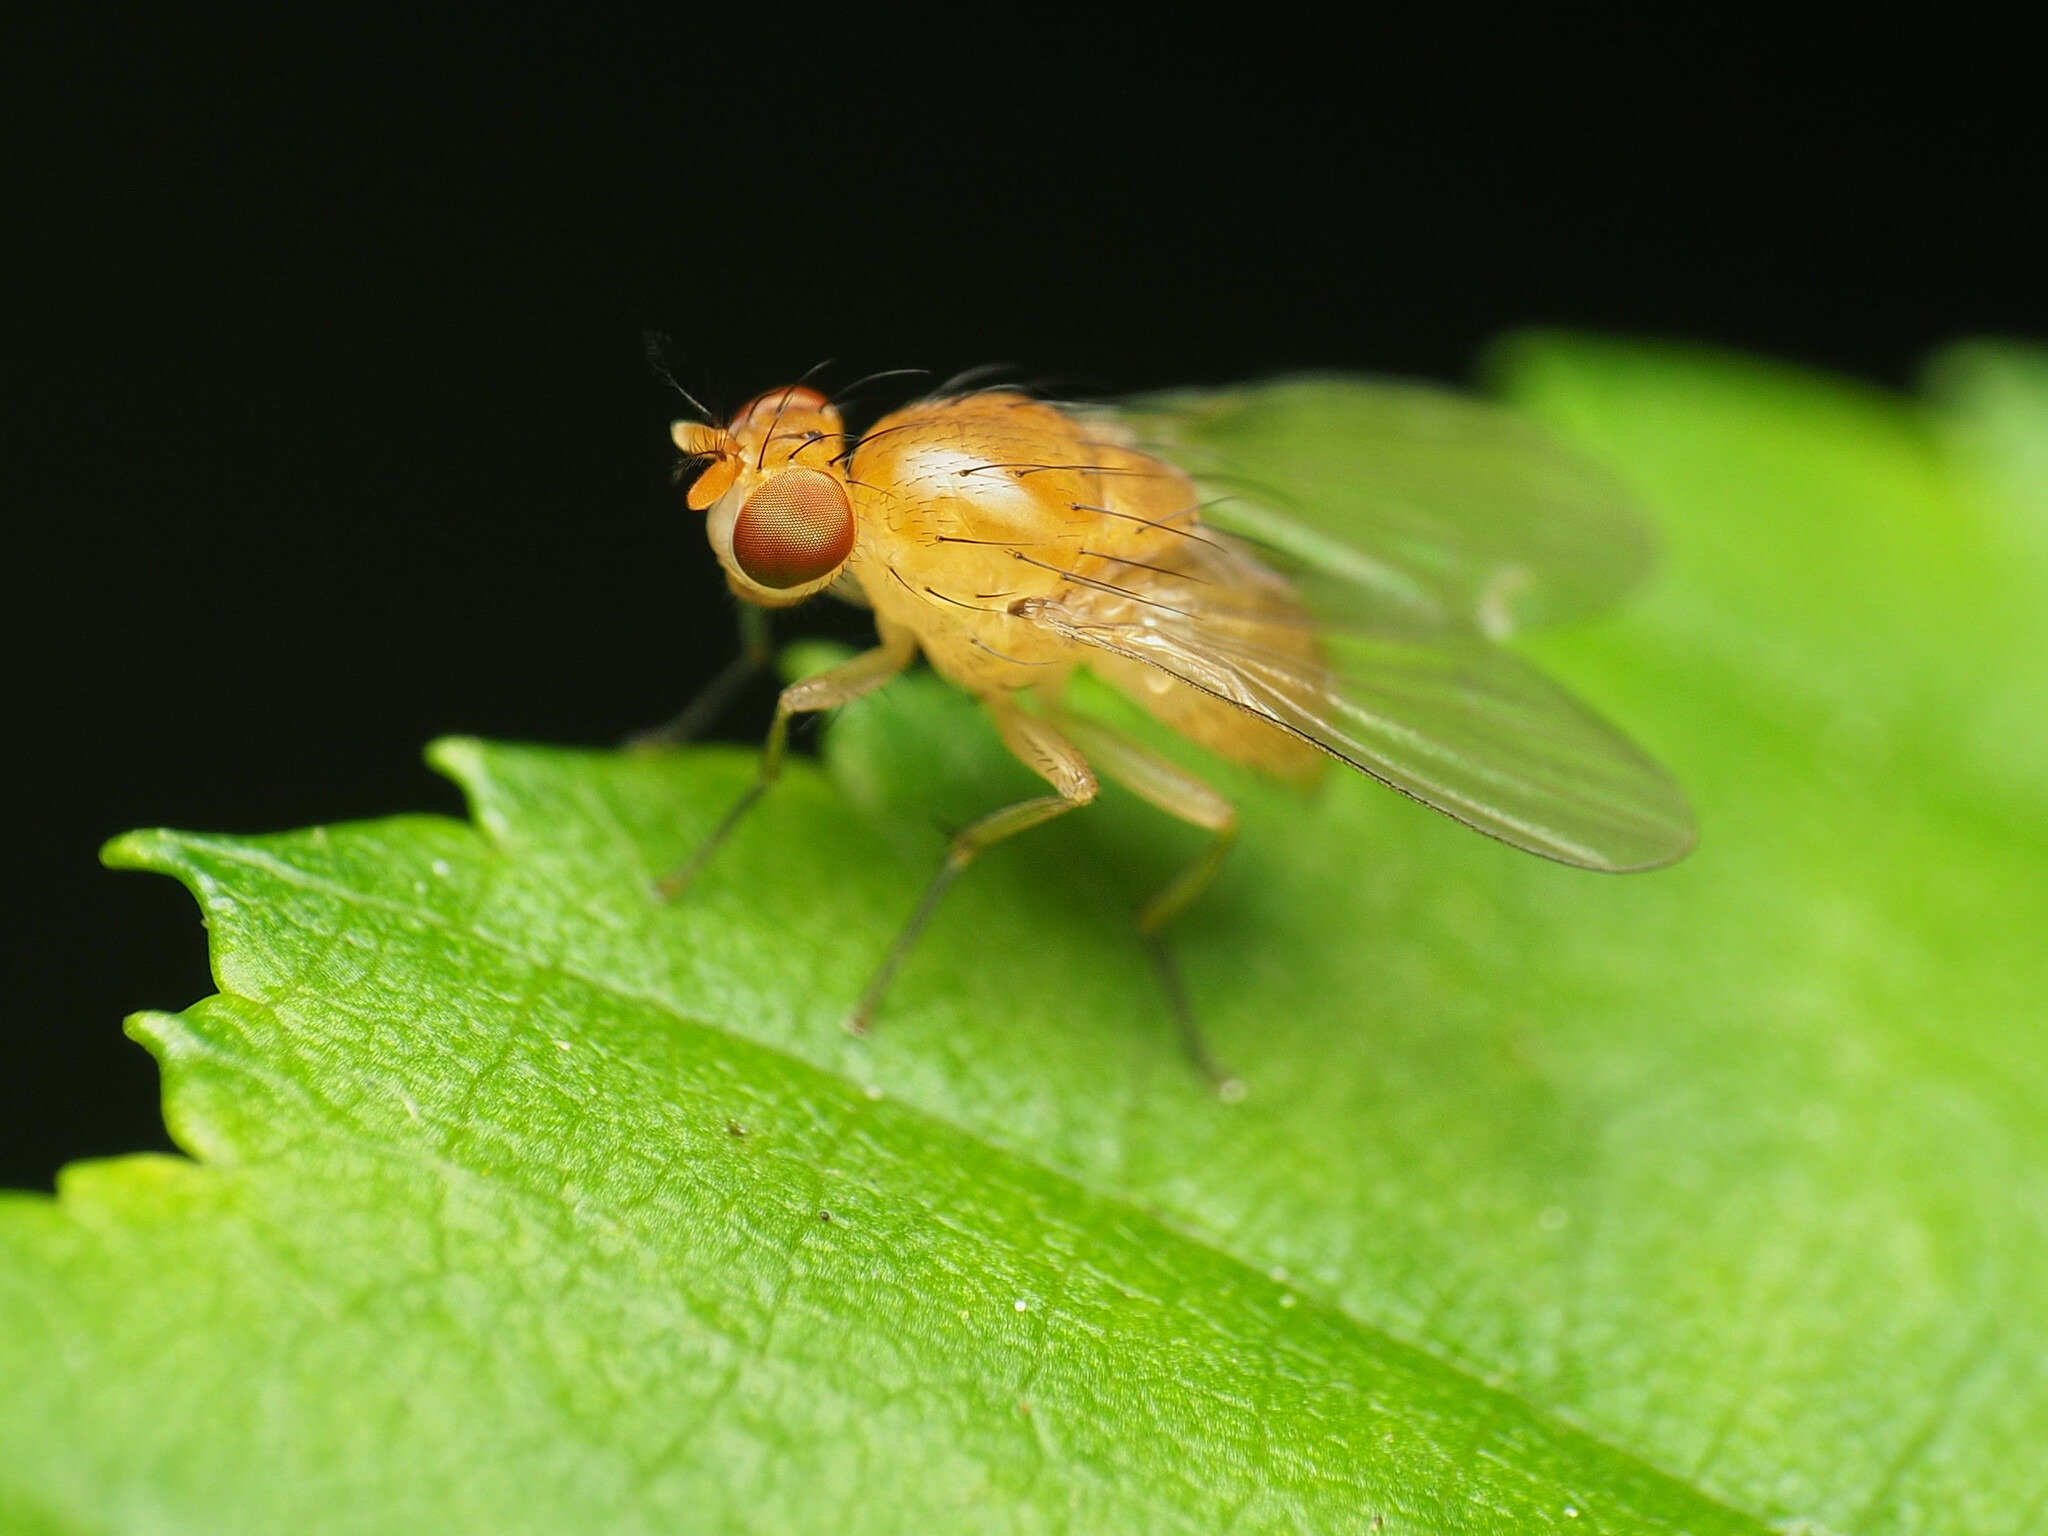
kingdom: Animalia
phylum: Arthropoda
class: Insecta
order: Diptera
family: Lauxaniidae
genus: Neogriphoneura
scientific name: Neogriphoneura sordida
